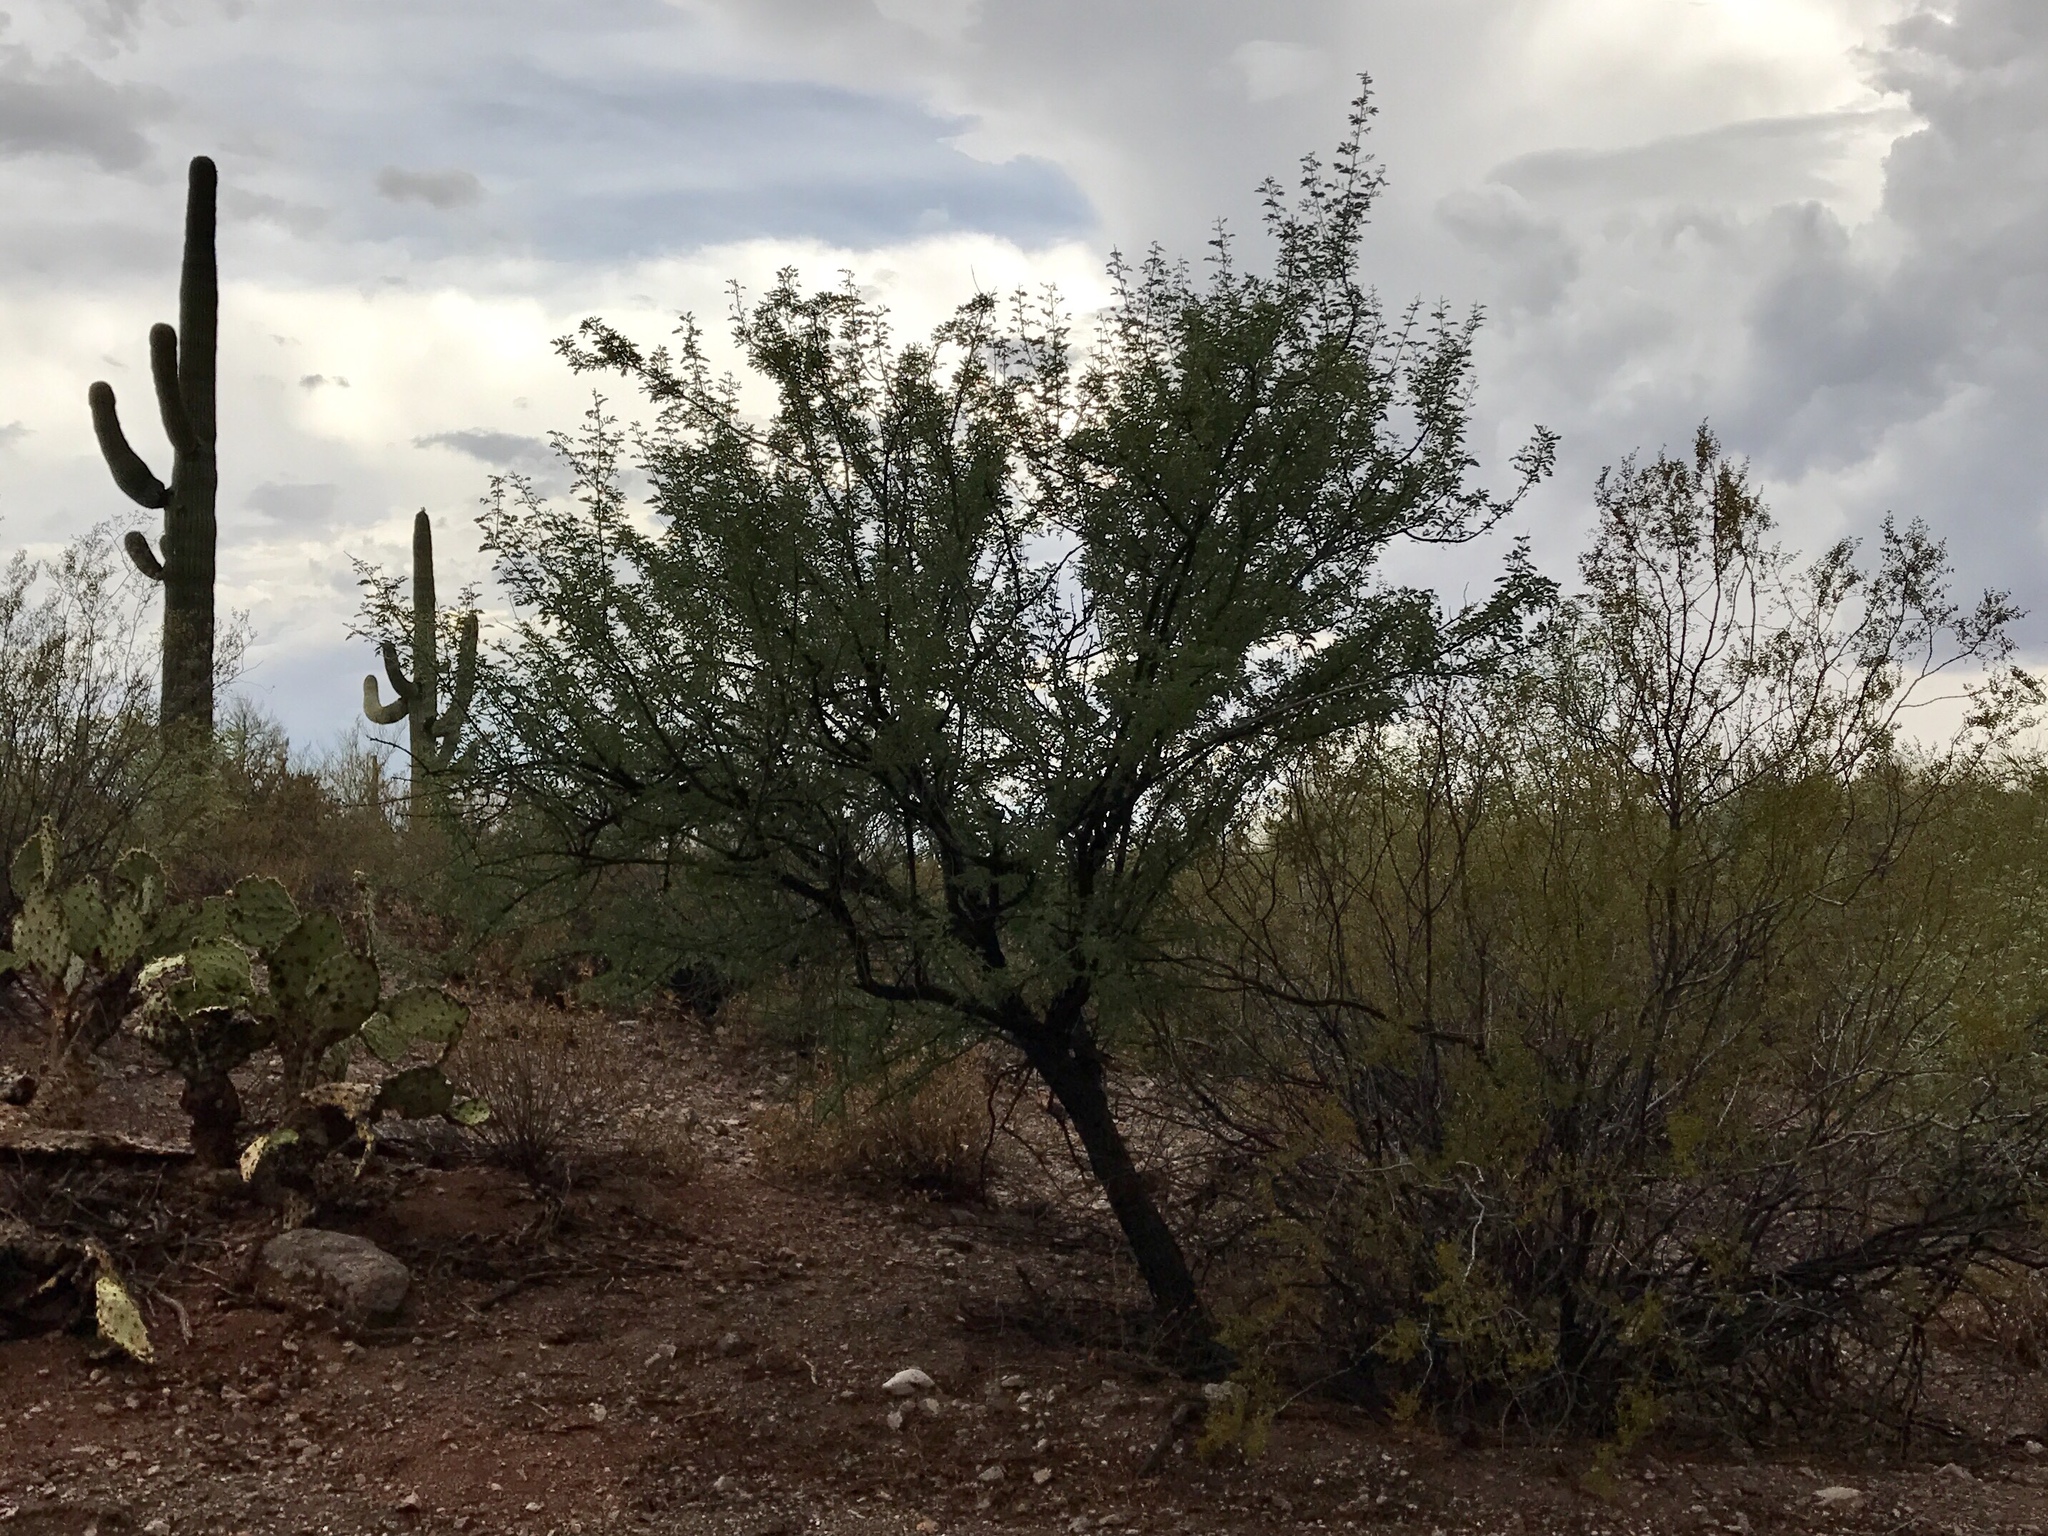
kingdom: Plantae
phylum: Tracheophyta
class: Magnoliopsida
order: Fabales
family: Fabaceae
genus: Olneya
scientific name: Olneya tesota
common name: Desert ironwood
